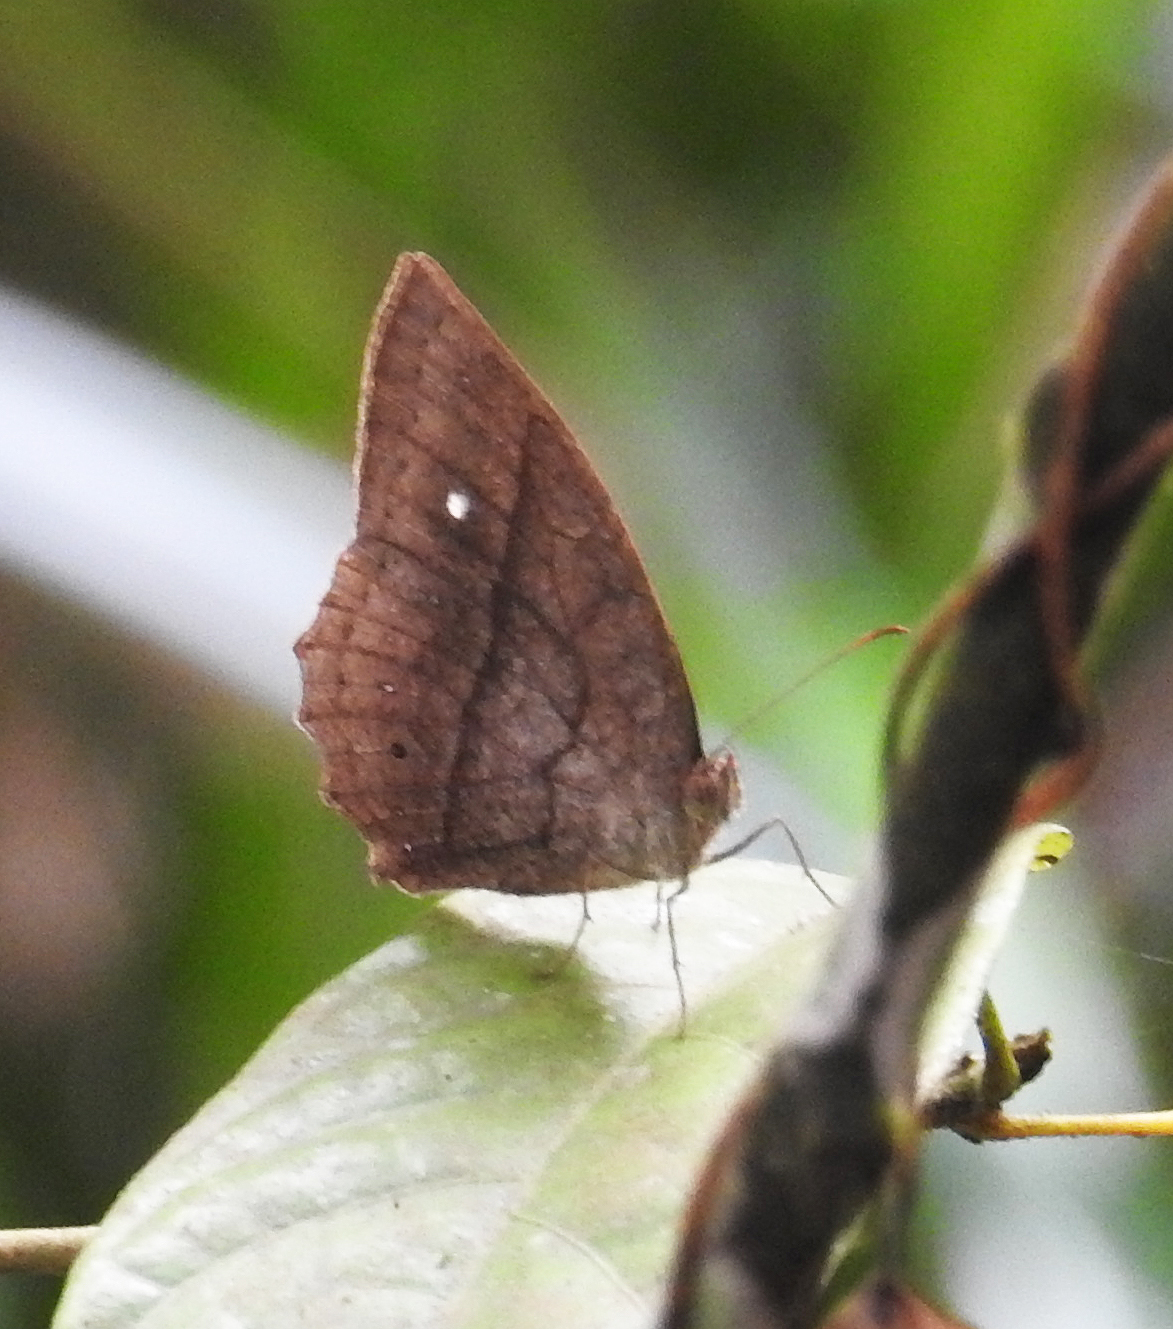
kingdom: Animalia
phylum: Arthropoda
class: Insecta
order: Lepidoptera
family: Nymphalidae
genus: Mycalesis
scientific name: Mycalesis visala
